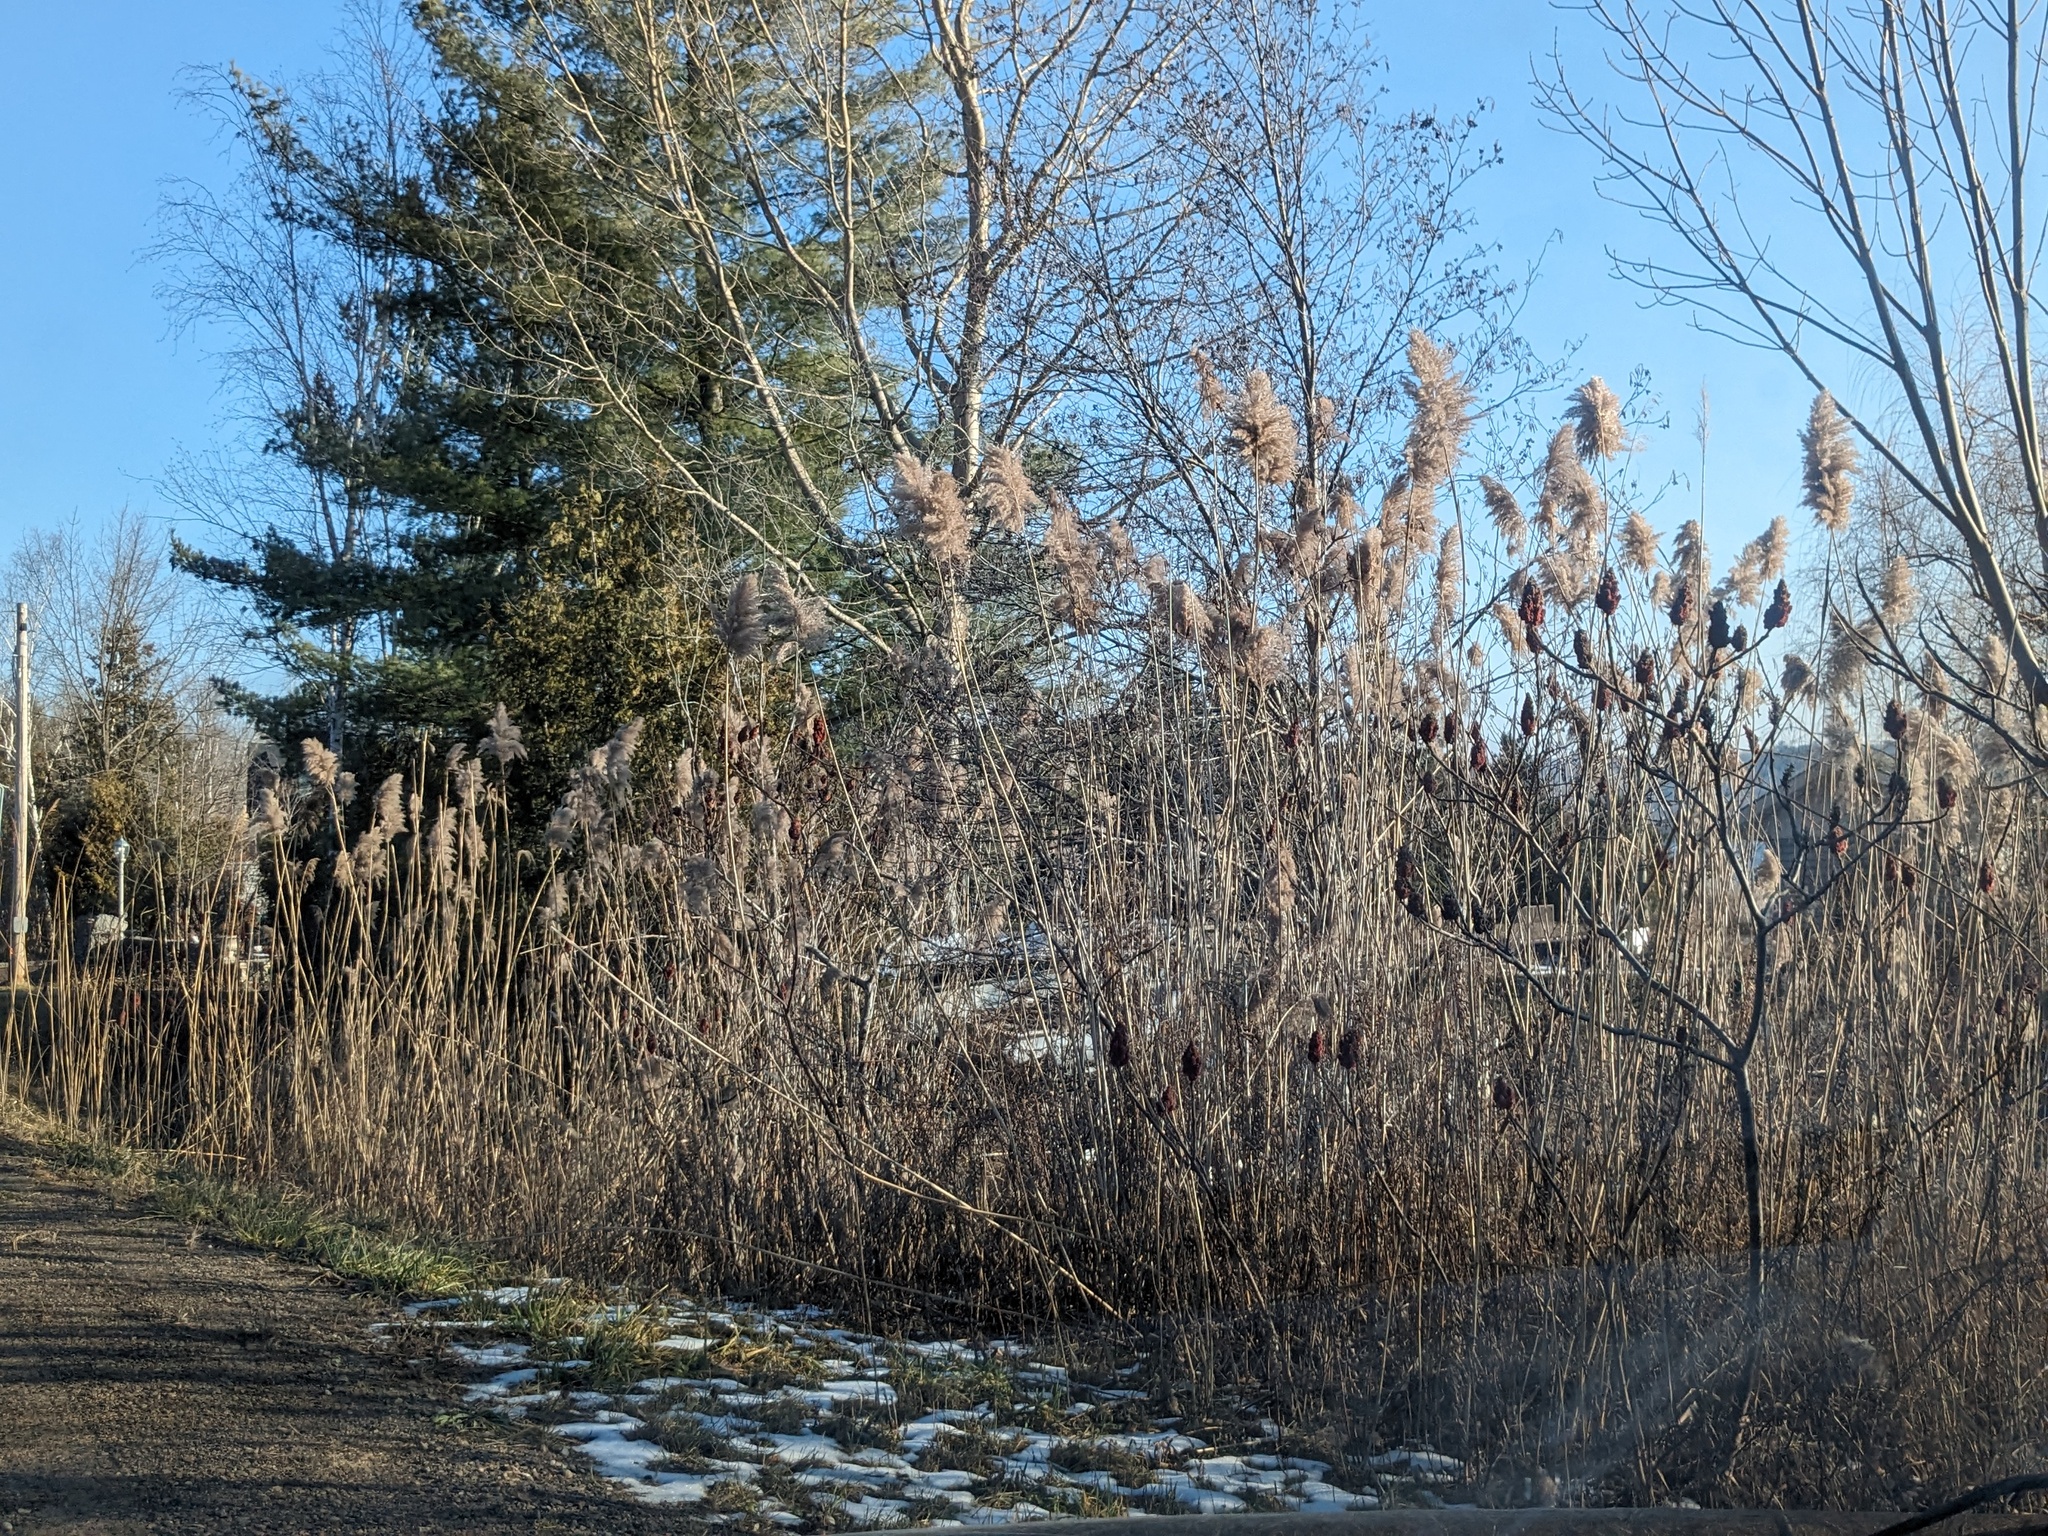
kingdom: Plantae
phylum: Tracheophyta
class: Liliopsida
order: Poales
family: Poaceae
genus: Phragmites
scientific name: Phragmites australis
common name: Common reed
